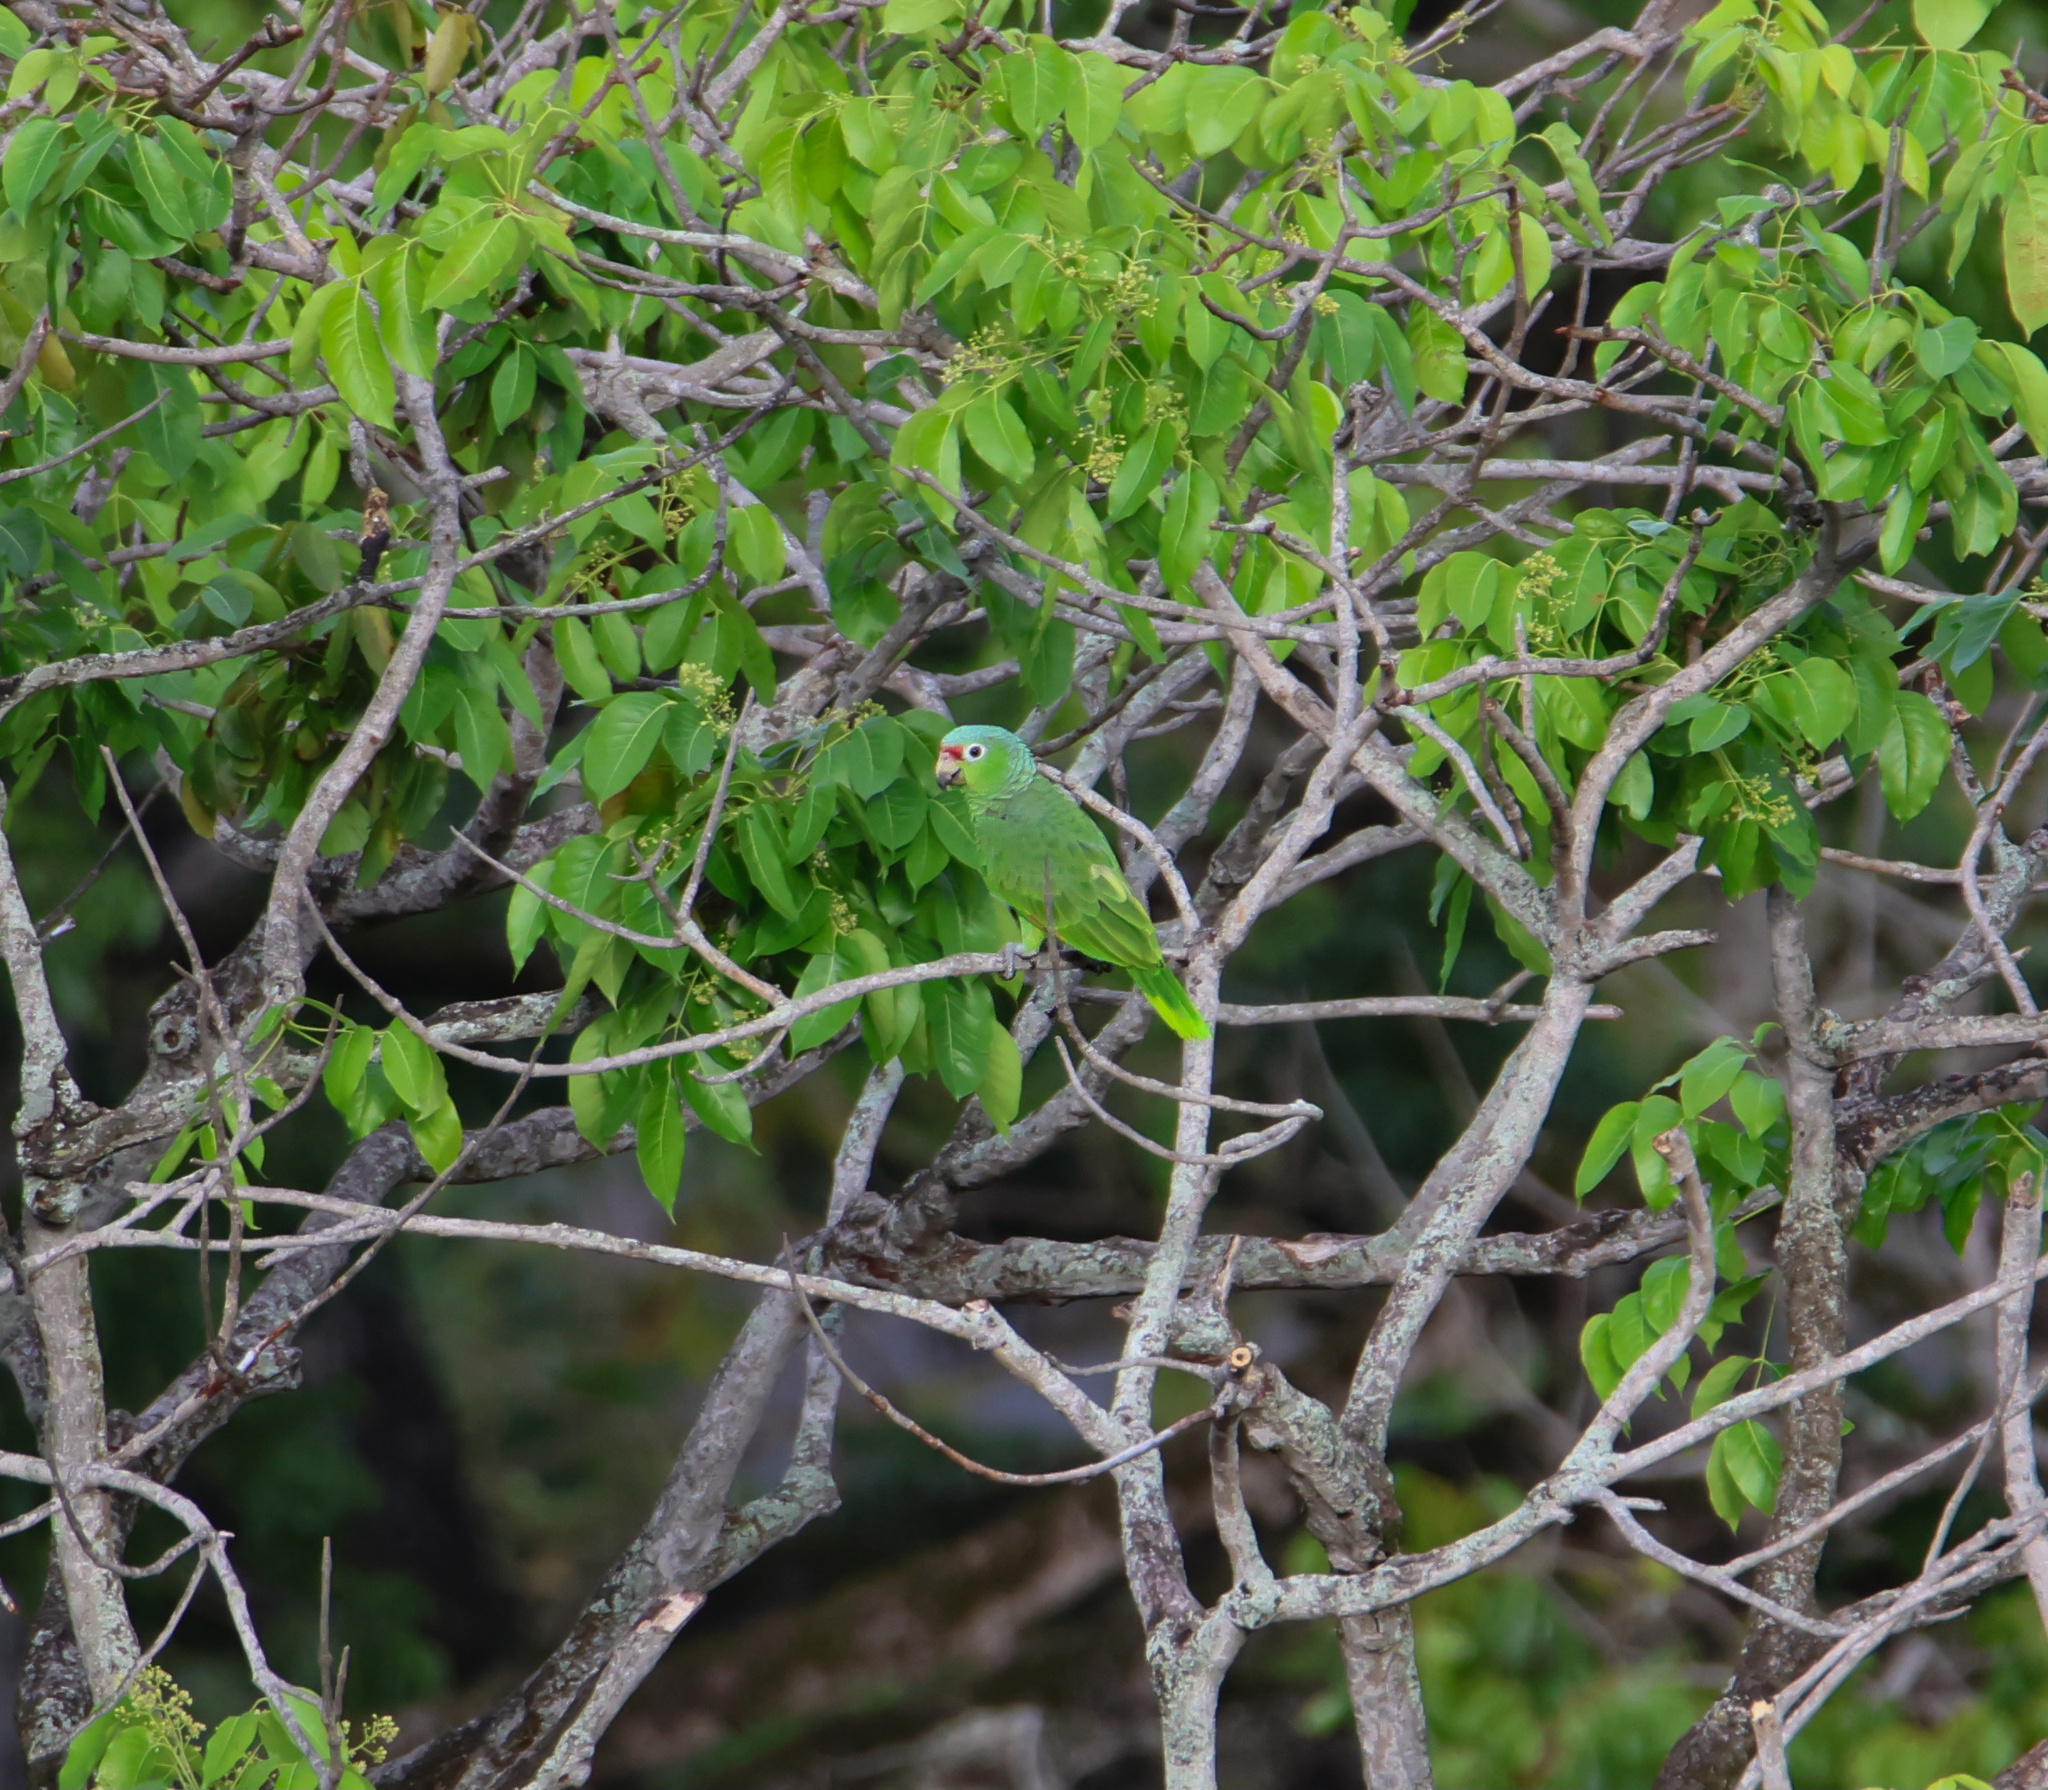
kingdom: Animalia
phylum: Chordata
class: Aves
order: Psittaciformes
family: Psittacidae
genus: Amazona
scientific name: Amazona autumnalis
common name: Red-lored amazon
